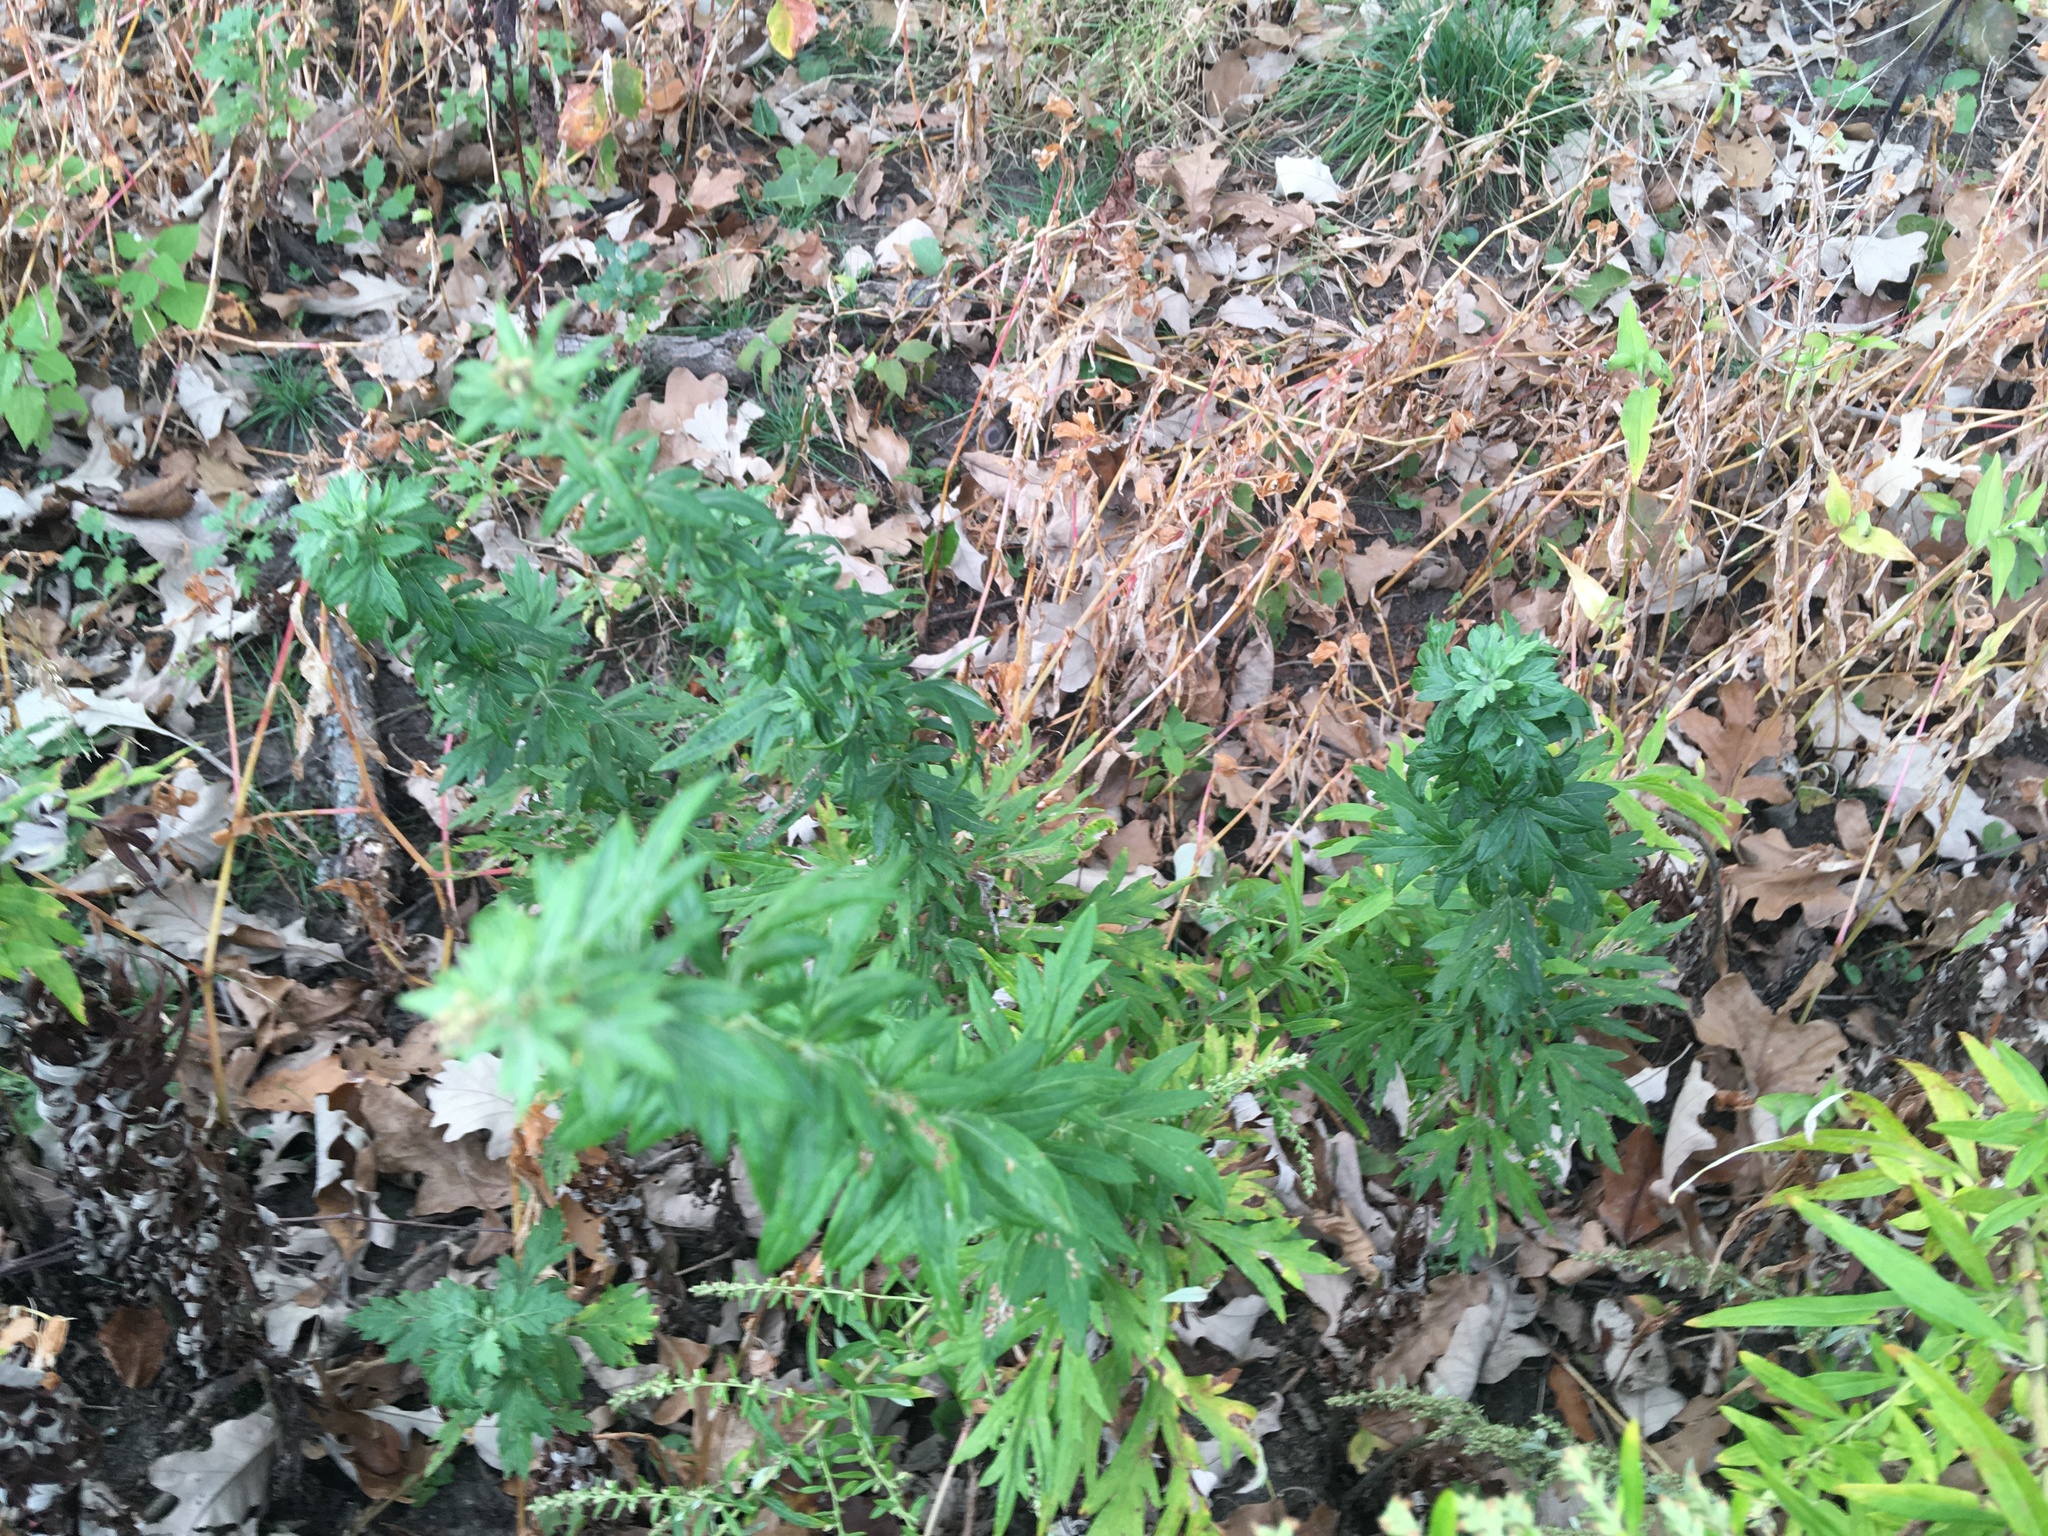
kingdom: Plantae
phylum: Tracheophyta
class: Magnoliopsida
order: Asterales
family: Asteraceae
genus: Artemisia
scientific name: Artemisia vulgaris
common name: Mugwort
